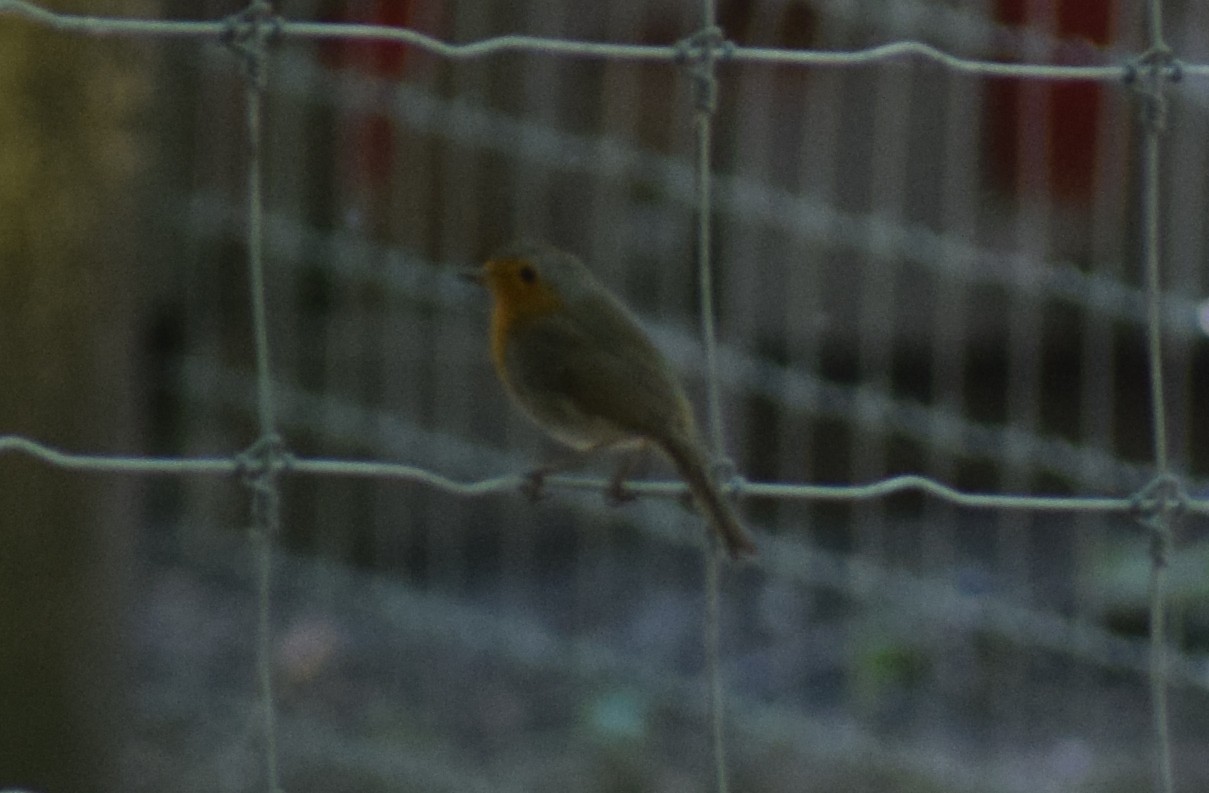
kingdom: Animalia
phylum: Chordata
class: Aves
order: Passeriformes
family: Muscicapidae
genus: Erithacus
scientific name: Erithacus rubecula
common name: European robin
